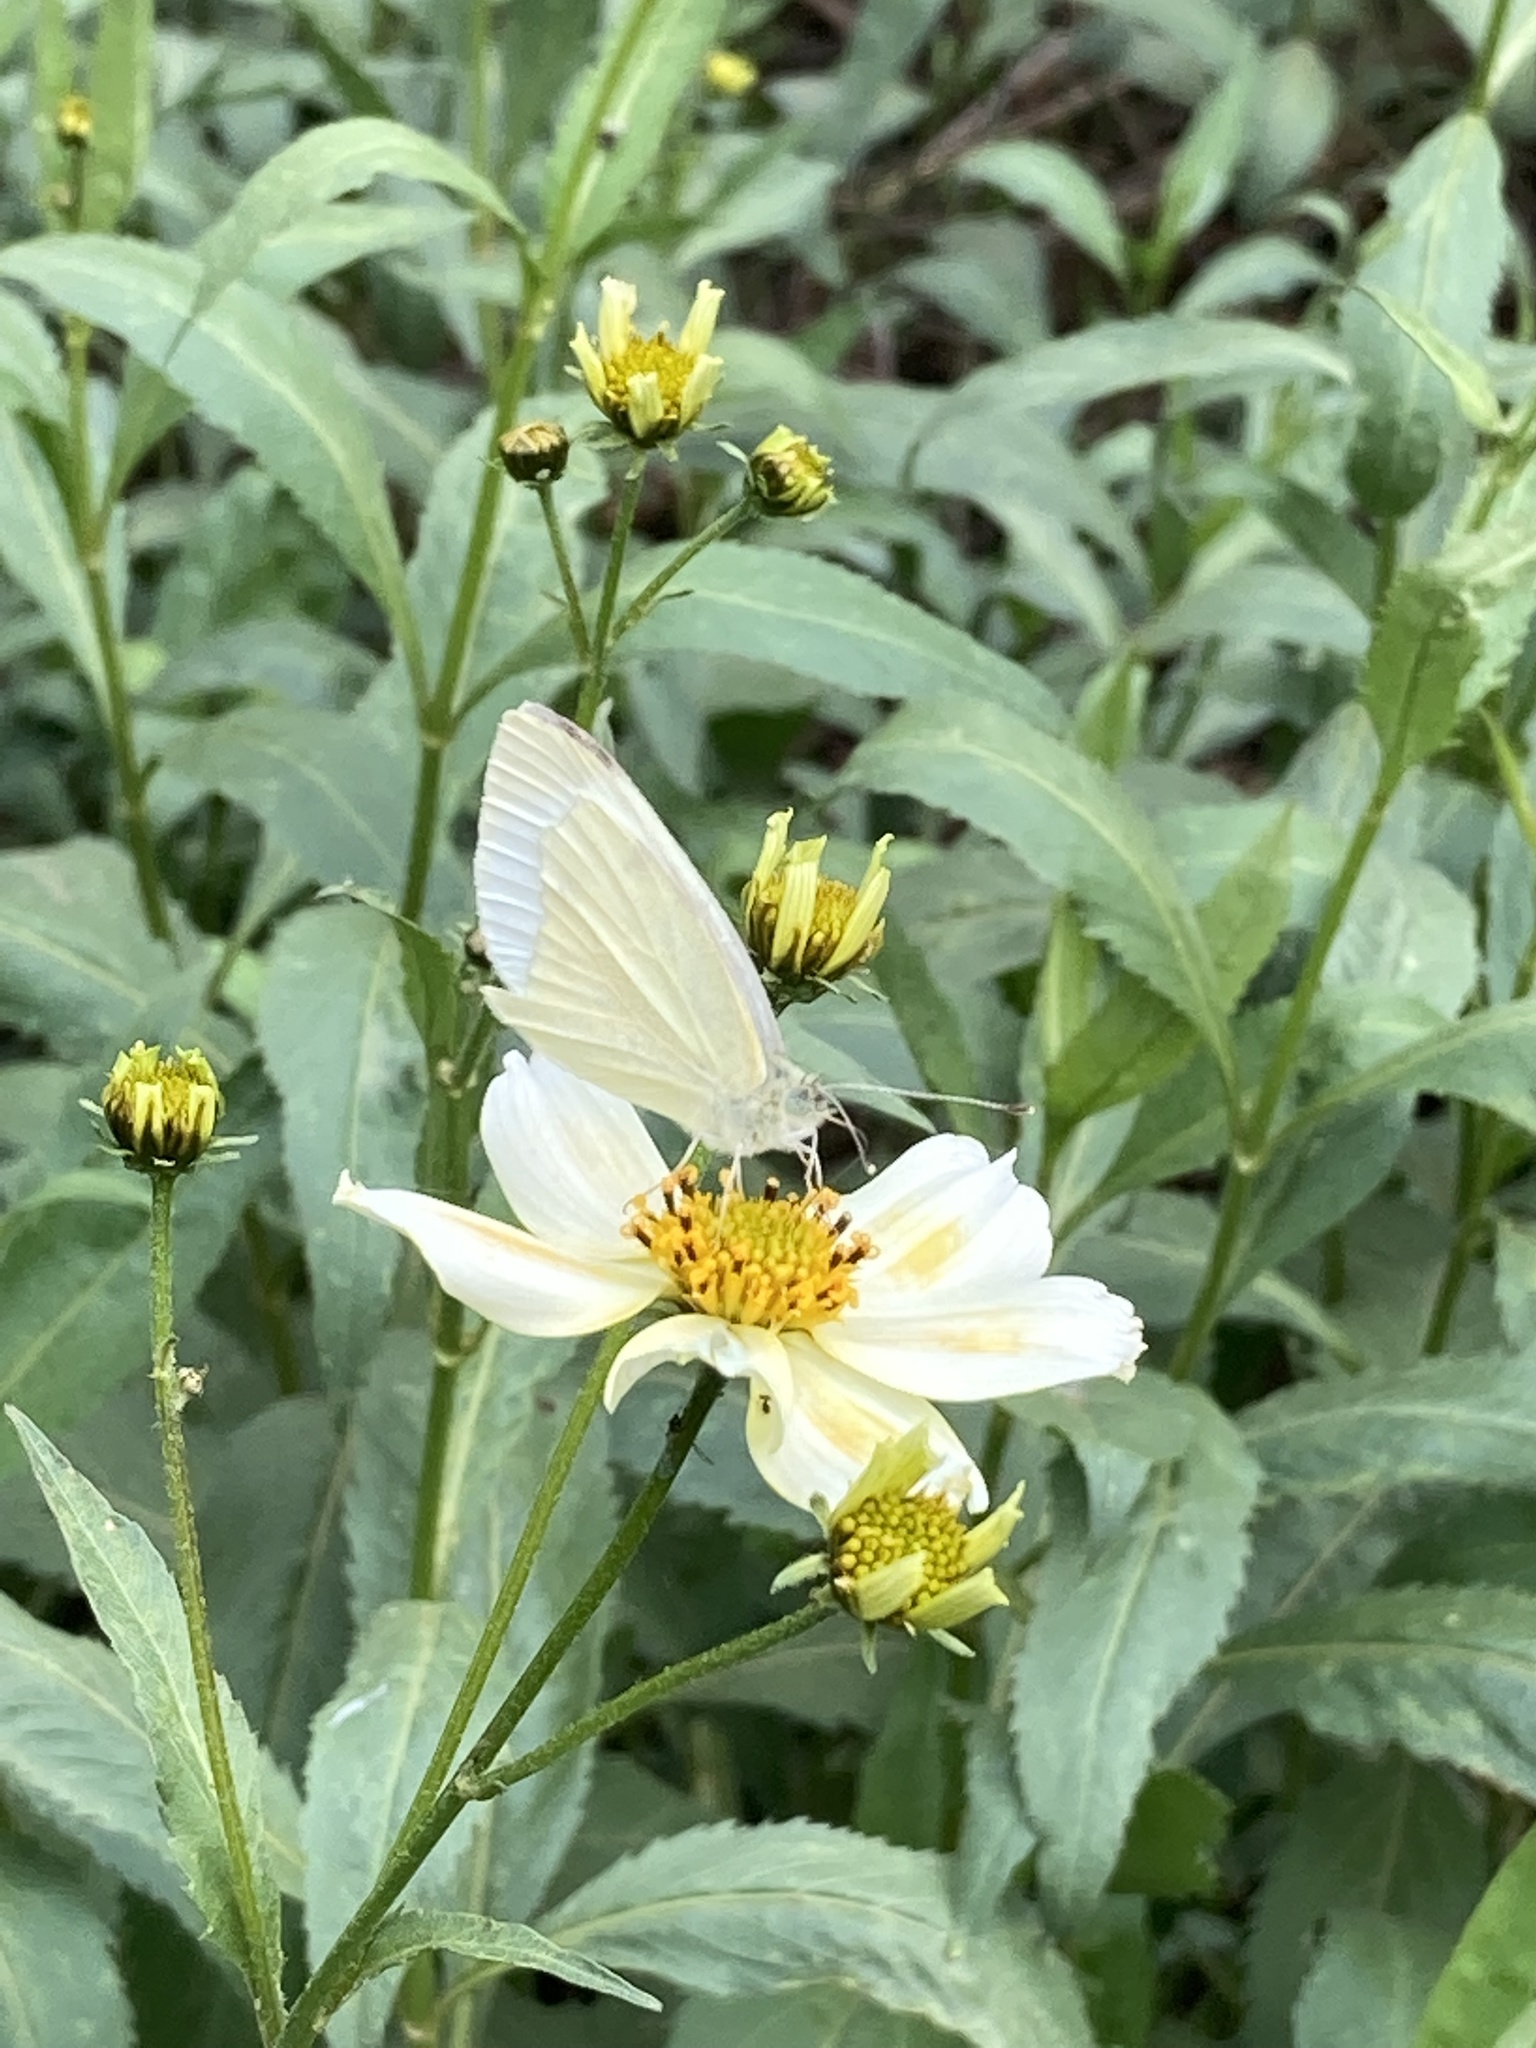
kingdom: Plantae
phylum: Tracheophyta
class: Magnoliopsida
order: Asterales
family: Asteraceae
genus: Bidens
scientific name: Bidens aurea
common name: Arizona beggar-ticks
